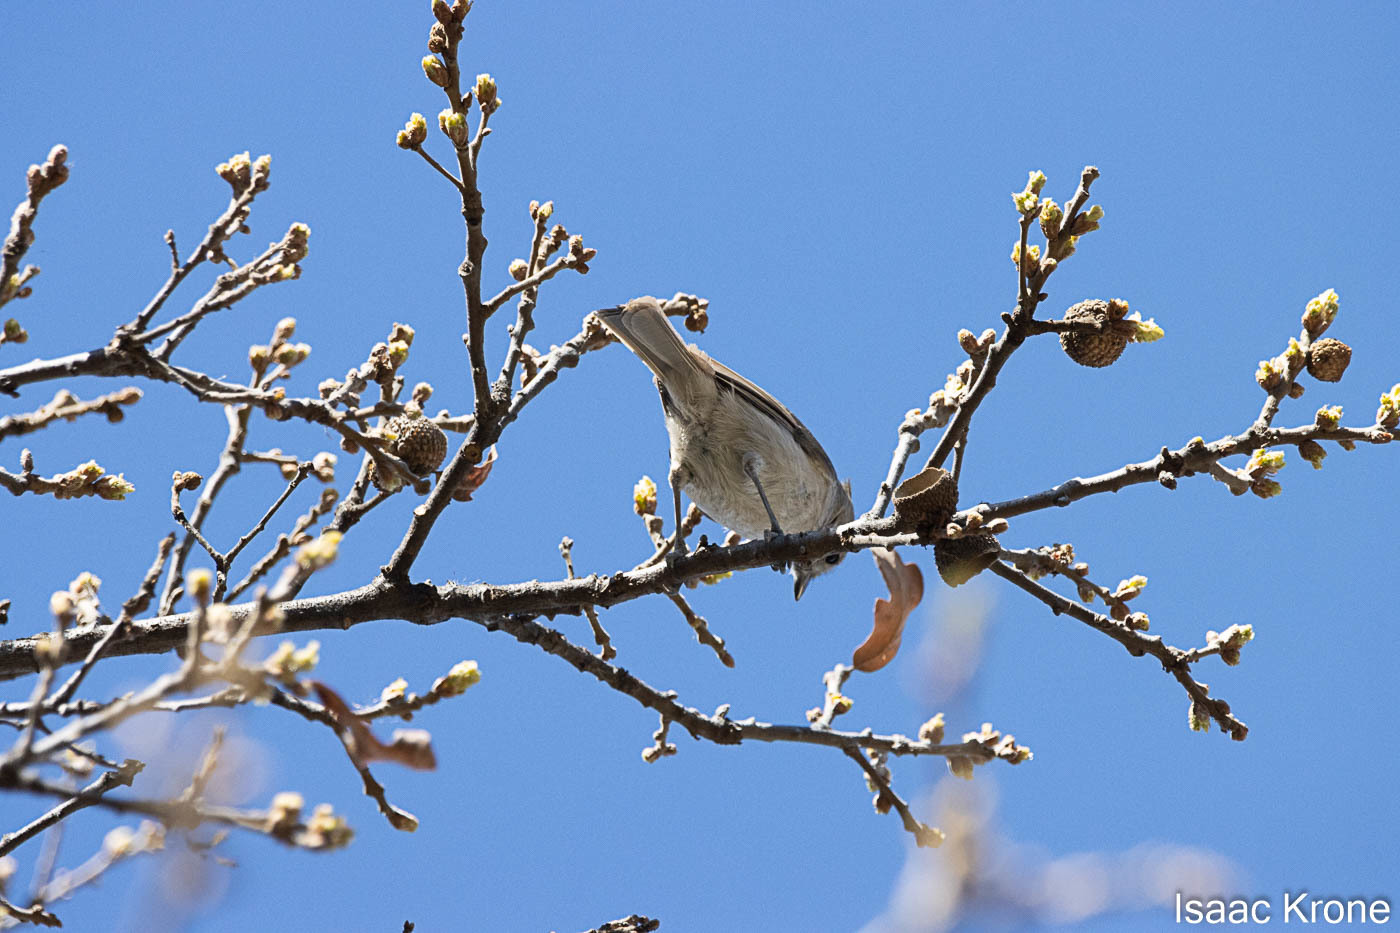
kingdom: Animalia
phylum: Chordata
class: Aves
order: Passeriformes
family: Paridae
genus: Baeolophus
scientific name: Baeolophus inornatus
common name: Oak titmouse
